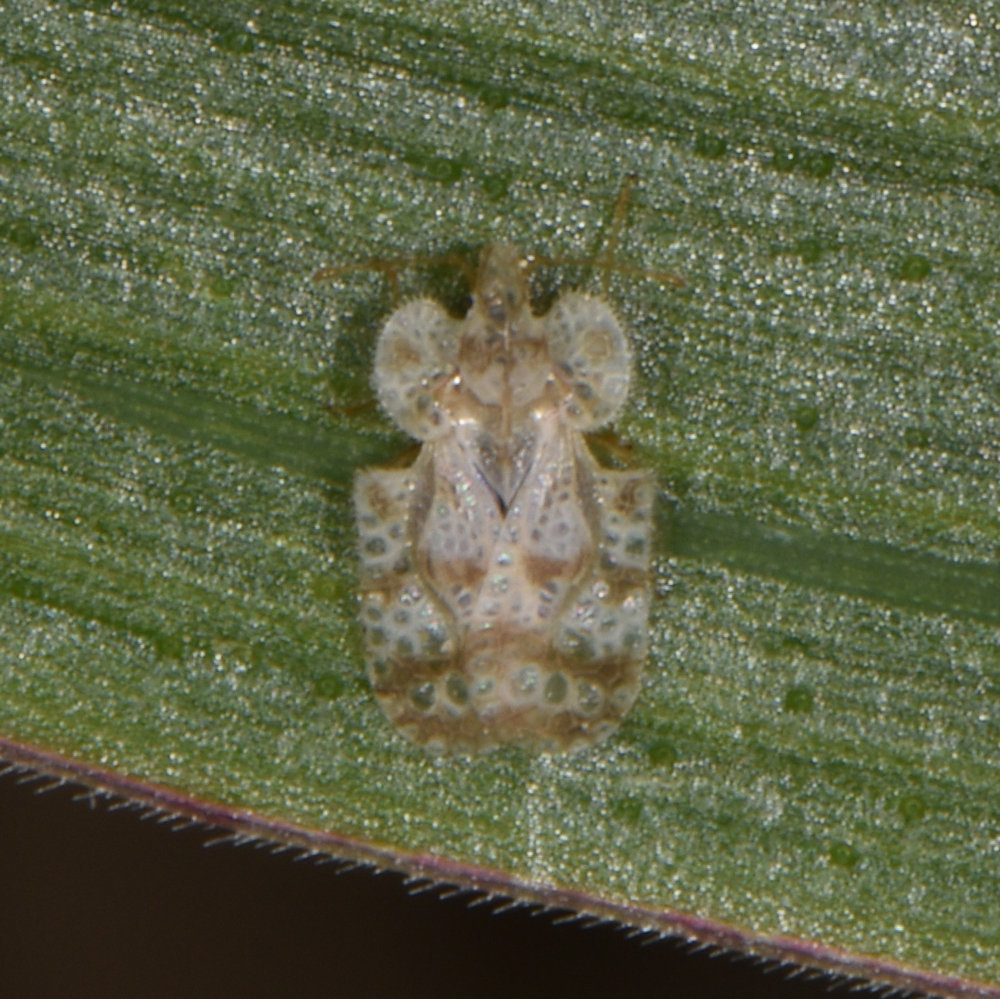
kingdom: Animalia
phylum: Arthropoda
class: Insecta
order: Hemiptera
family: Tingidae
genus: Corythucha
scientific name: Corythucha marmorata
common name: Chrysanthemum lace bug
